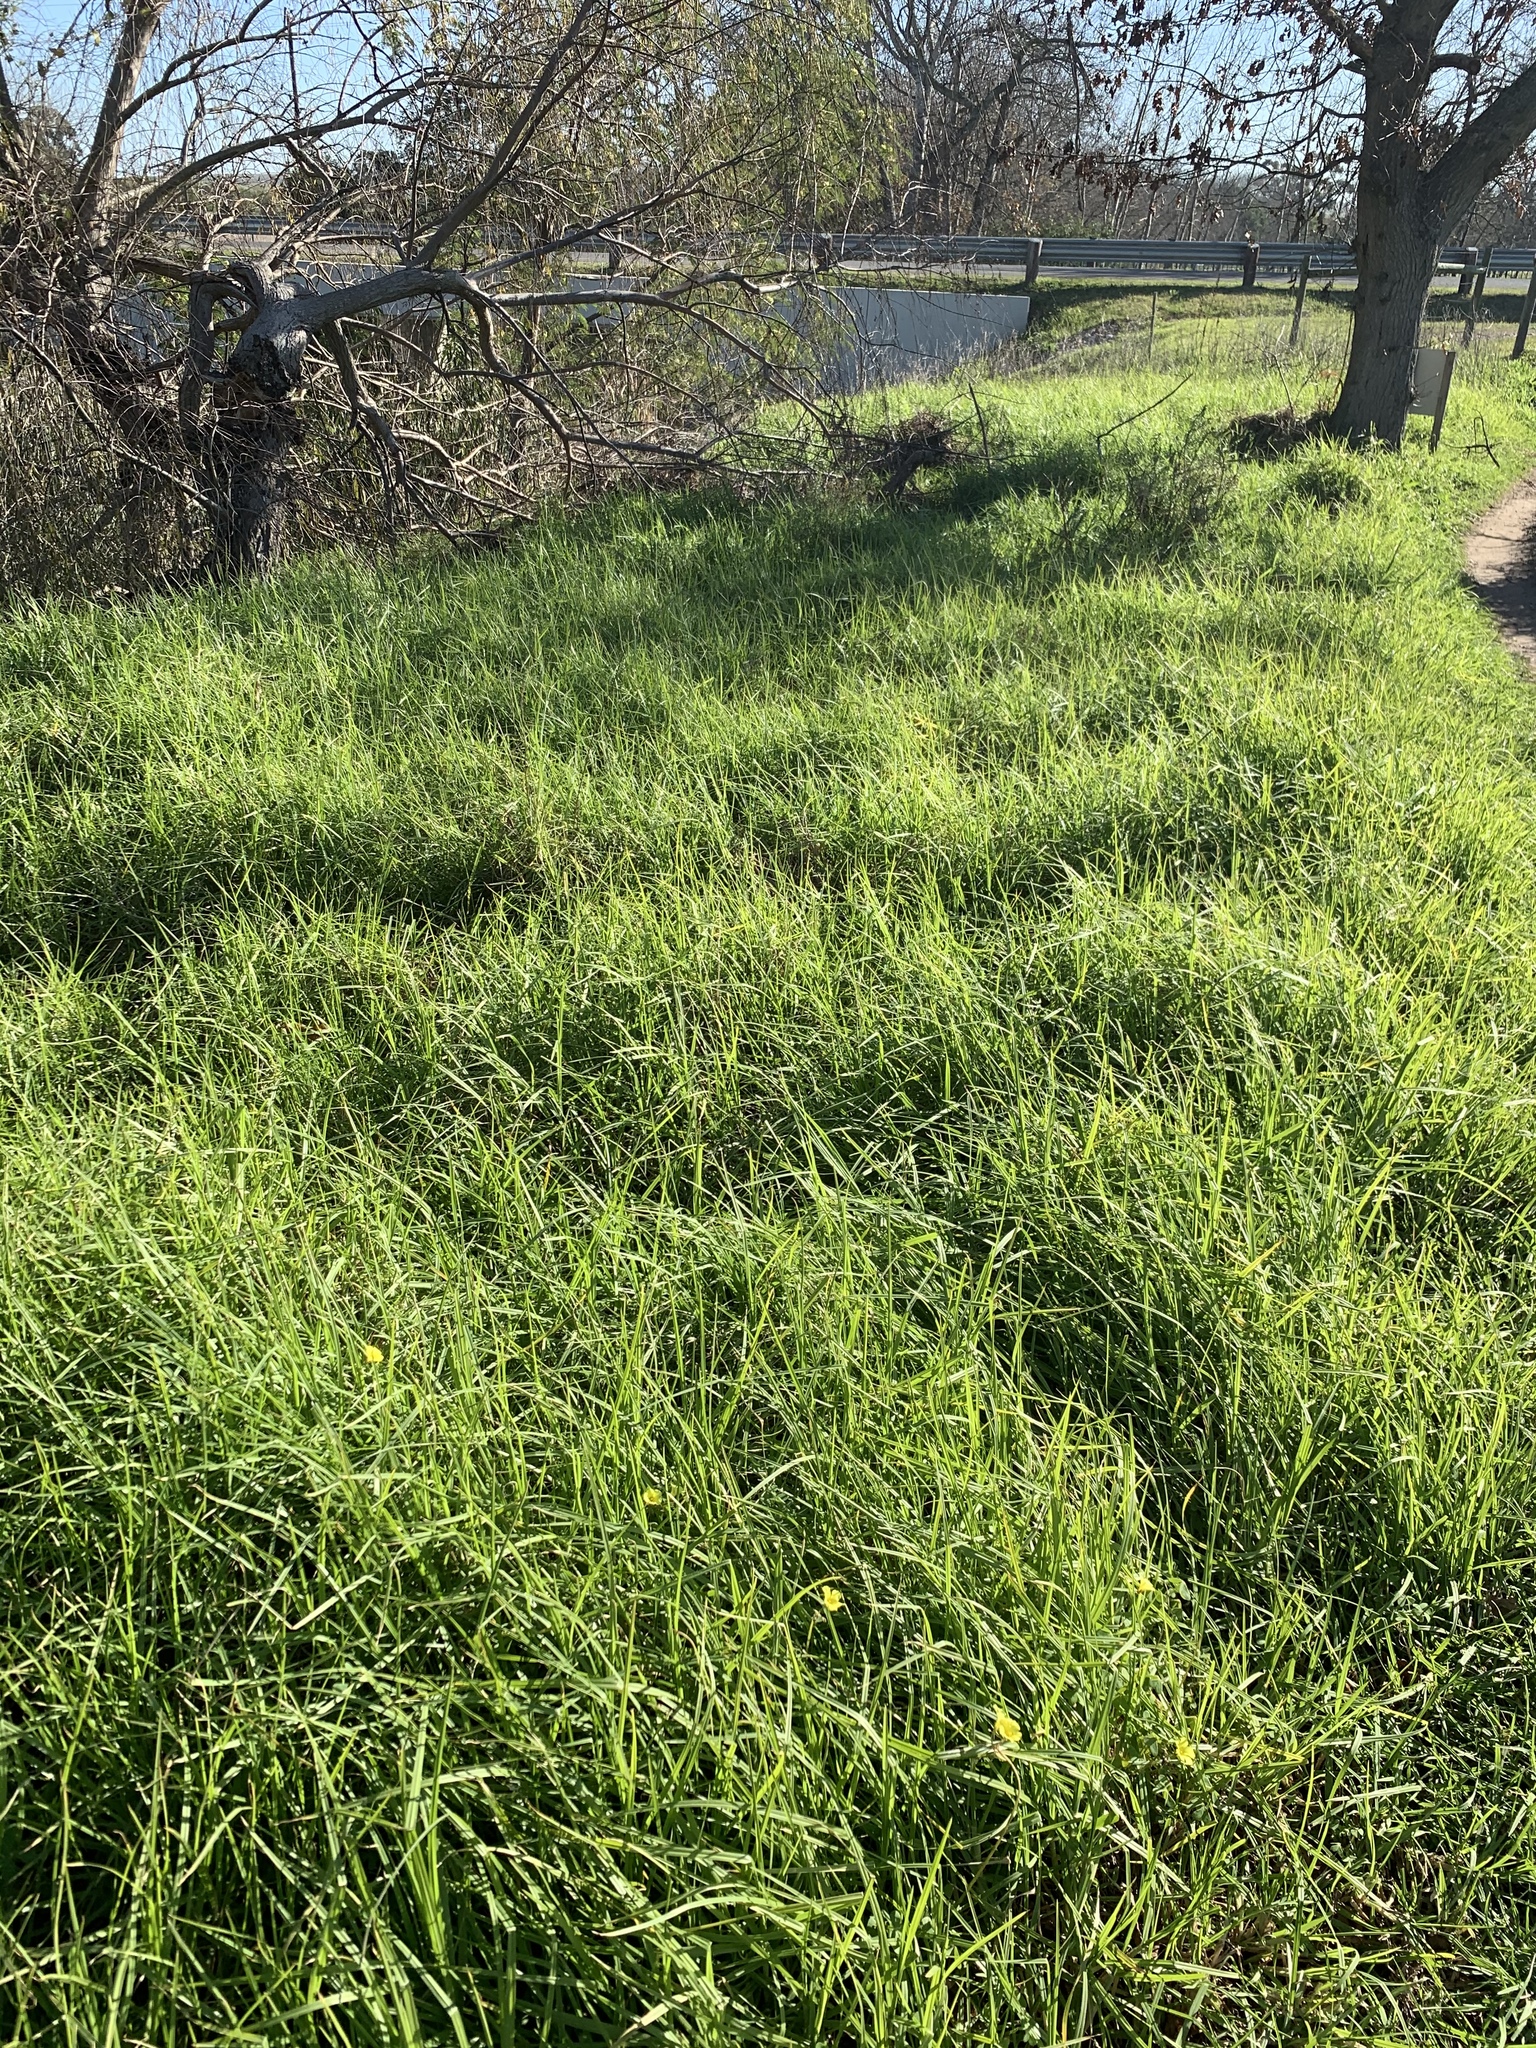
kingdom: Plantae
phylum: Tracheophyta
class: Liliopsida
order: Poales
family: Poaceae
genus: Cenchrus
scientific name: Cenchrus clandestinus
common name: Kikuyugrass
